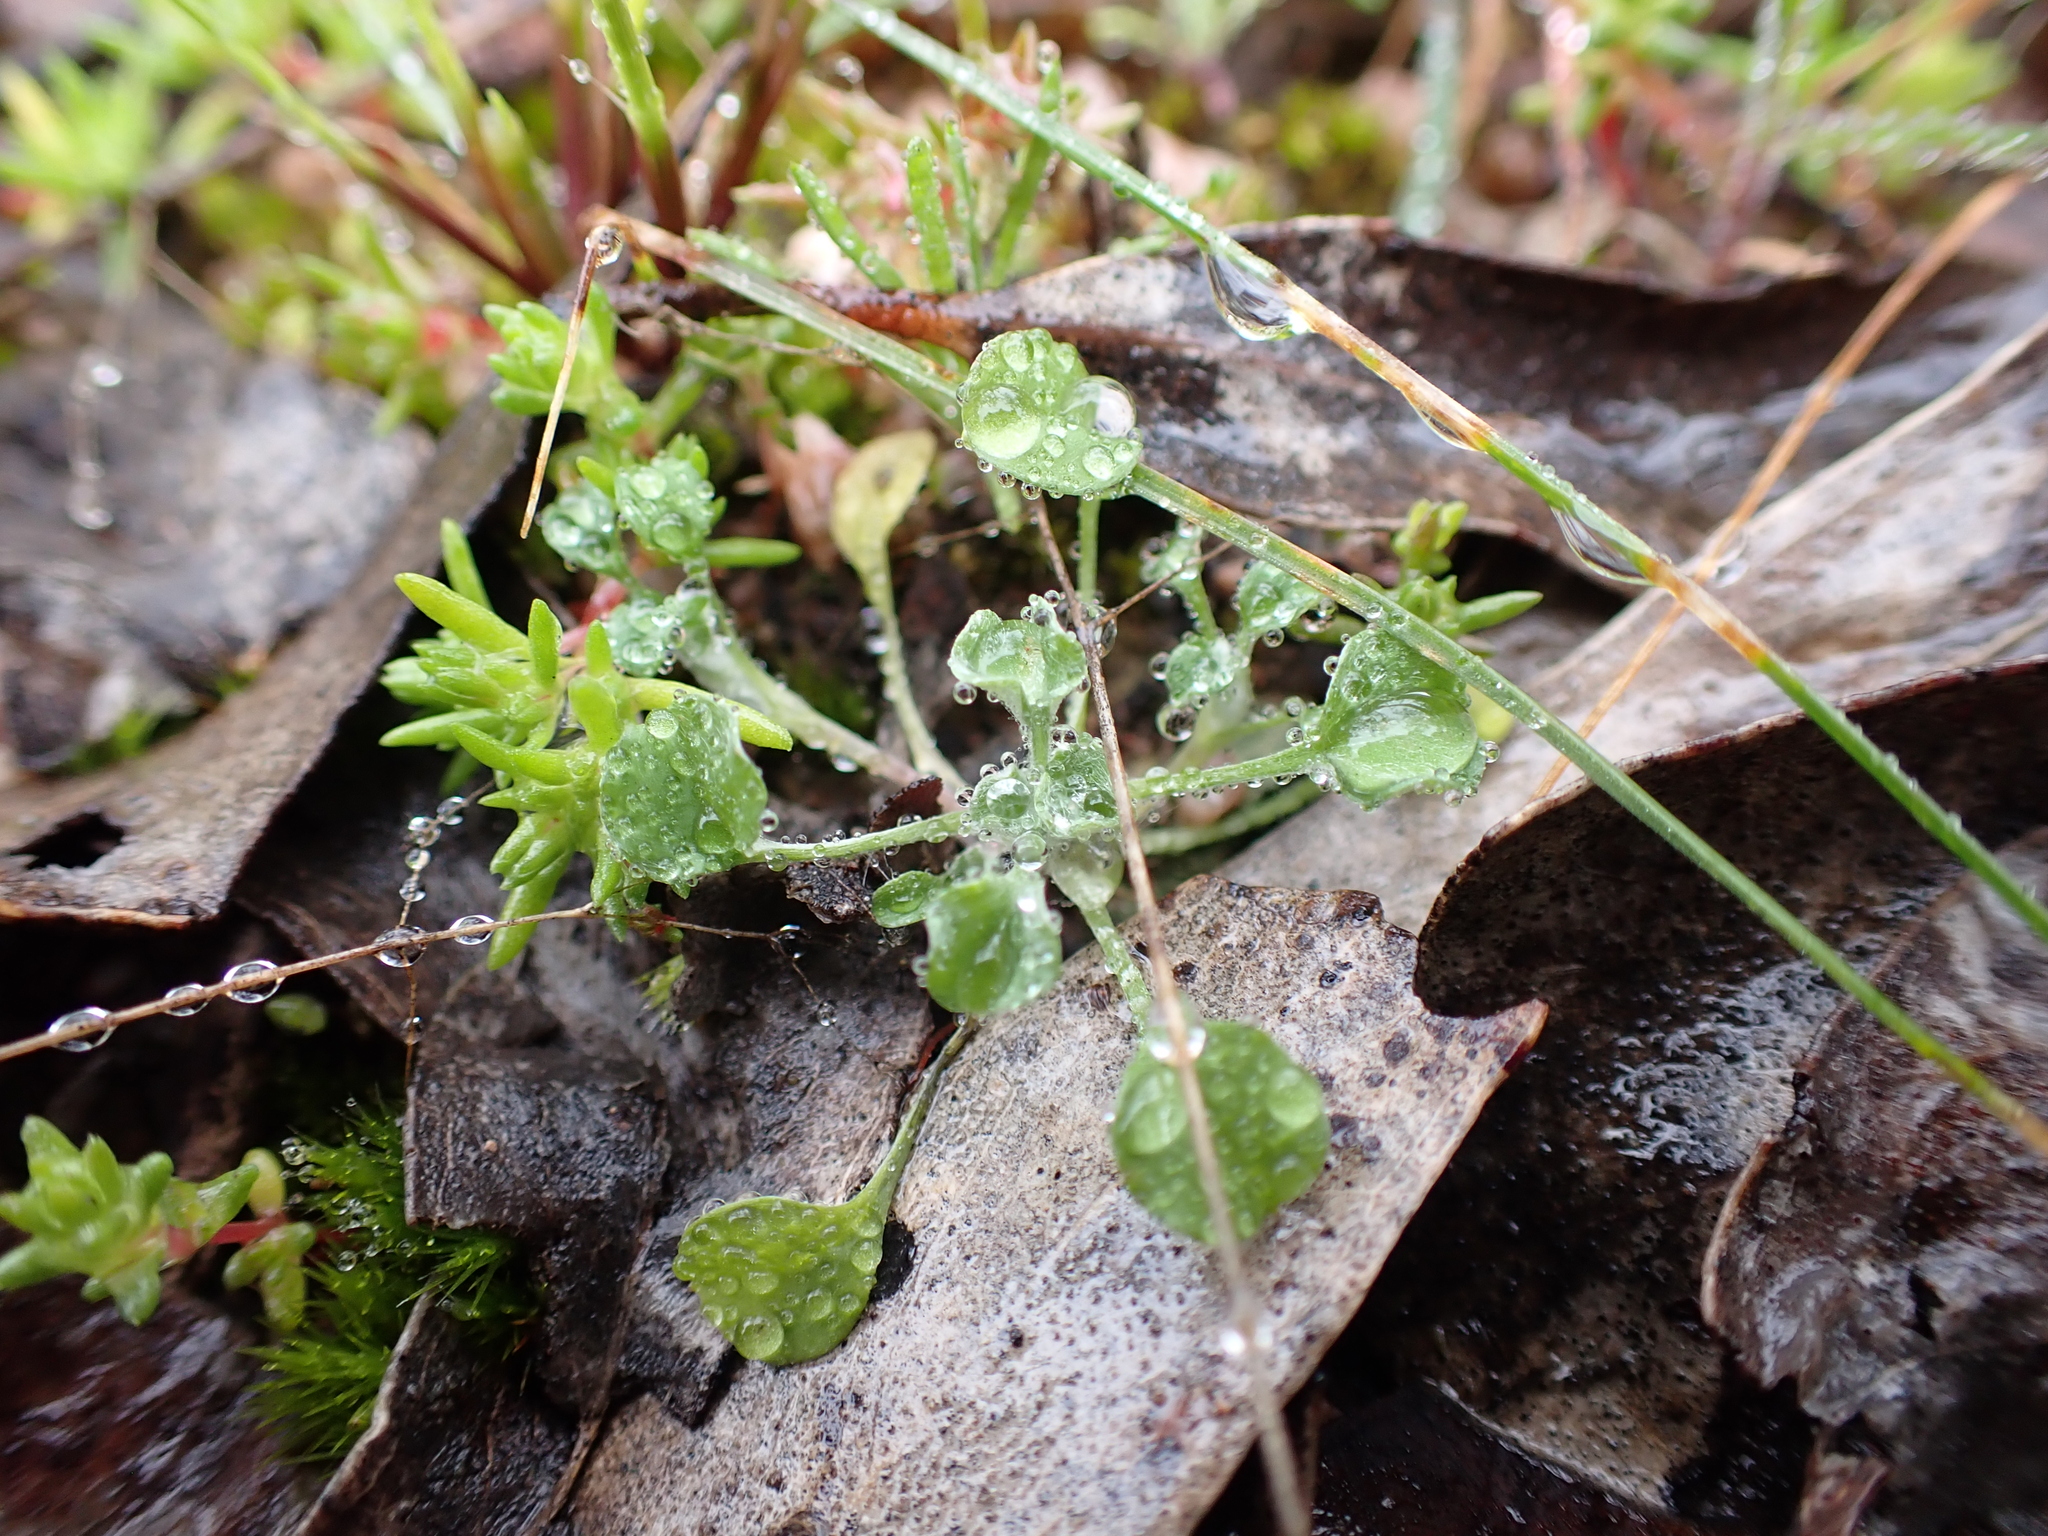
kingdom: Plantae
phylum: Tracheophyta
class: Magnoliopsida
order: Asterales
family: Asteraceae
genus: Stuartina
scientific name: Stuartina muelleri
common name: Spoon-leaved cudweed
